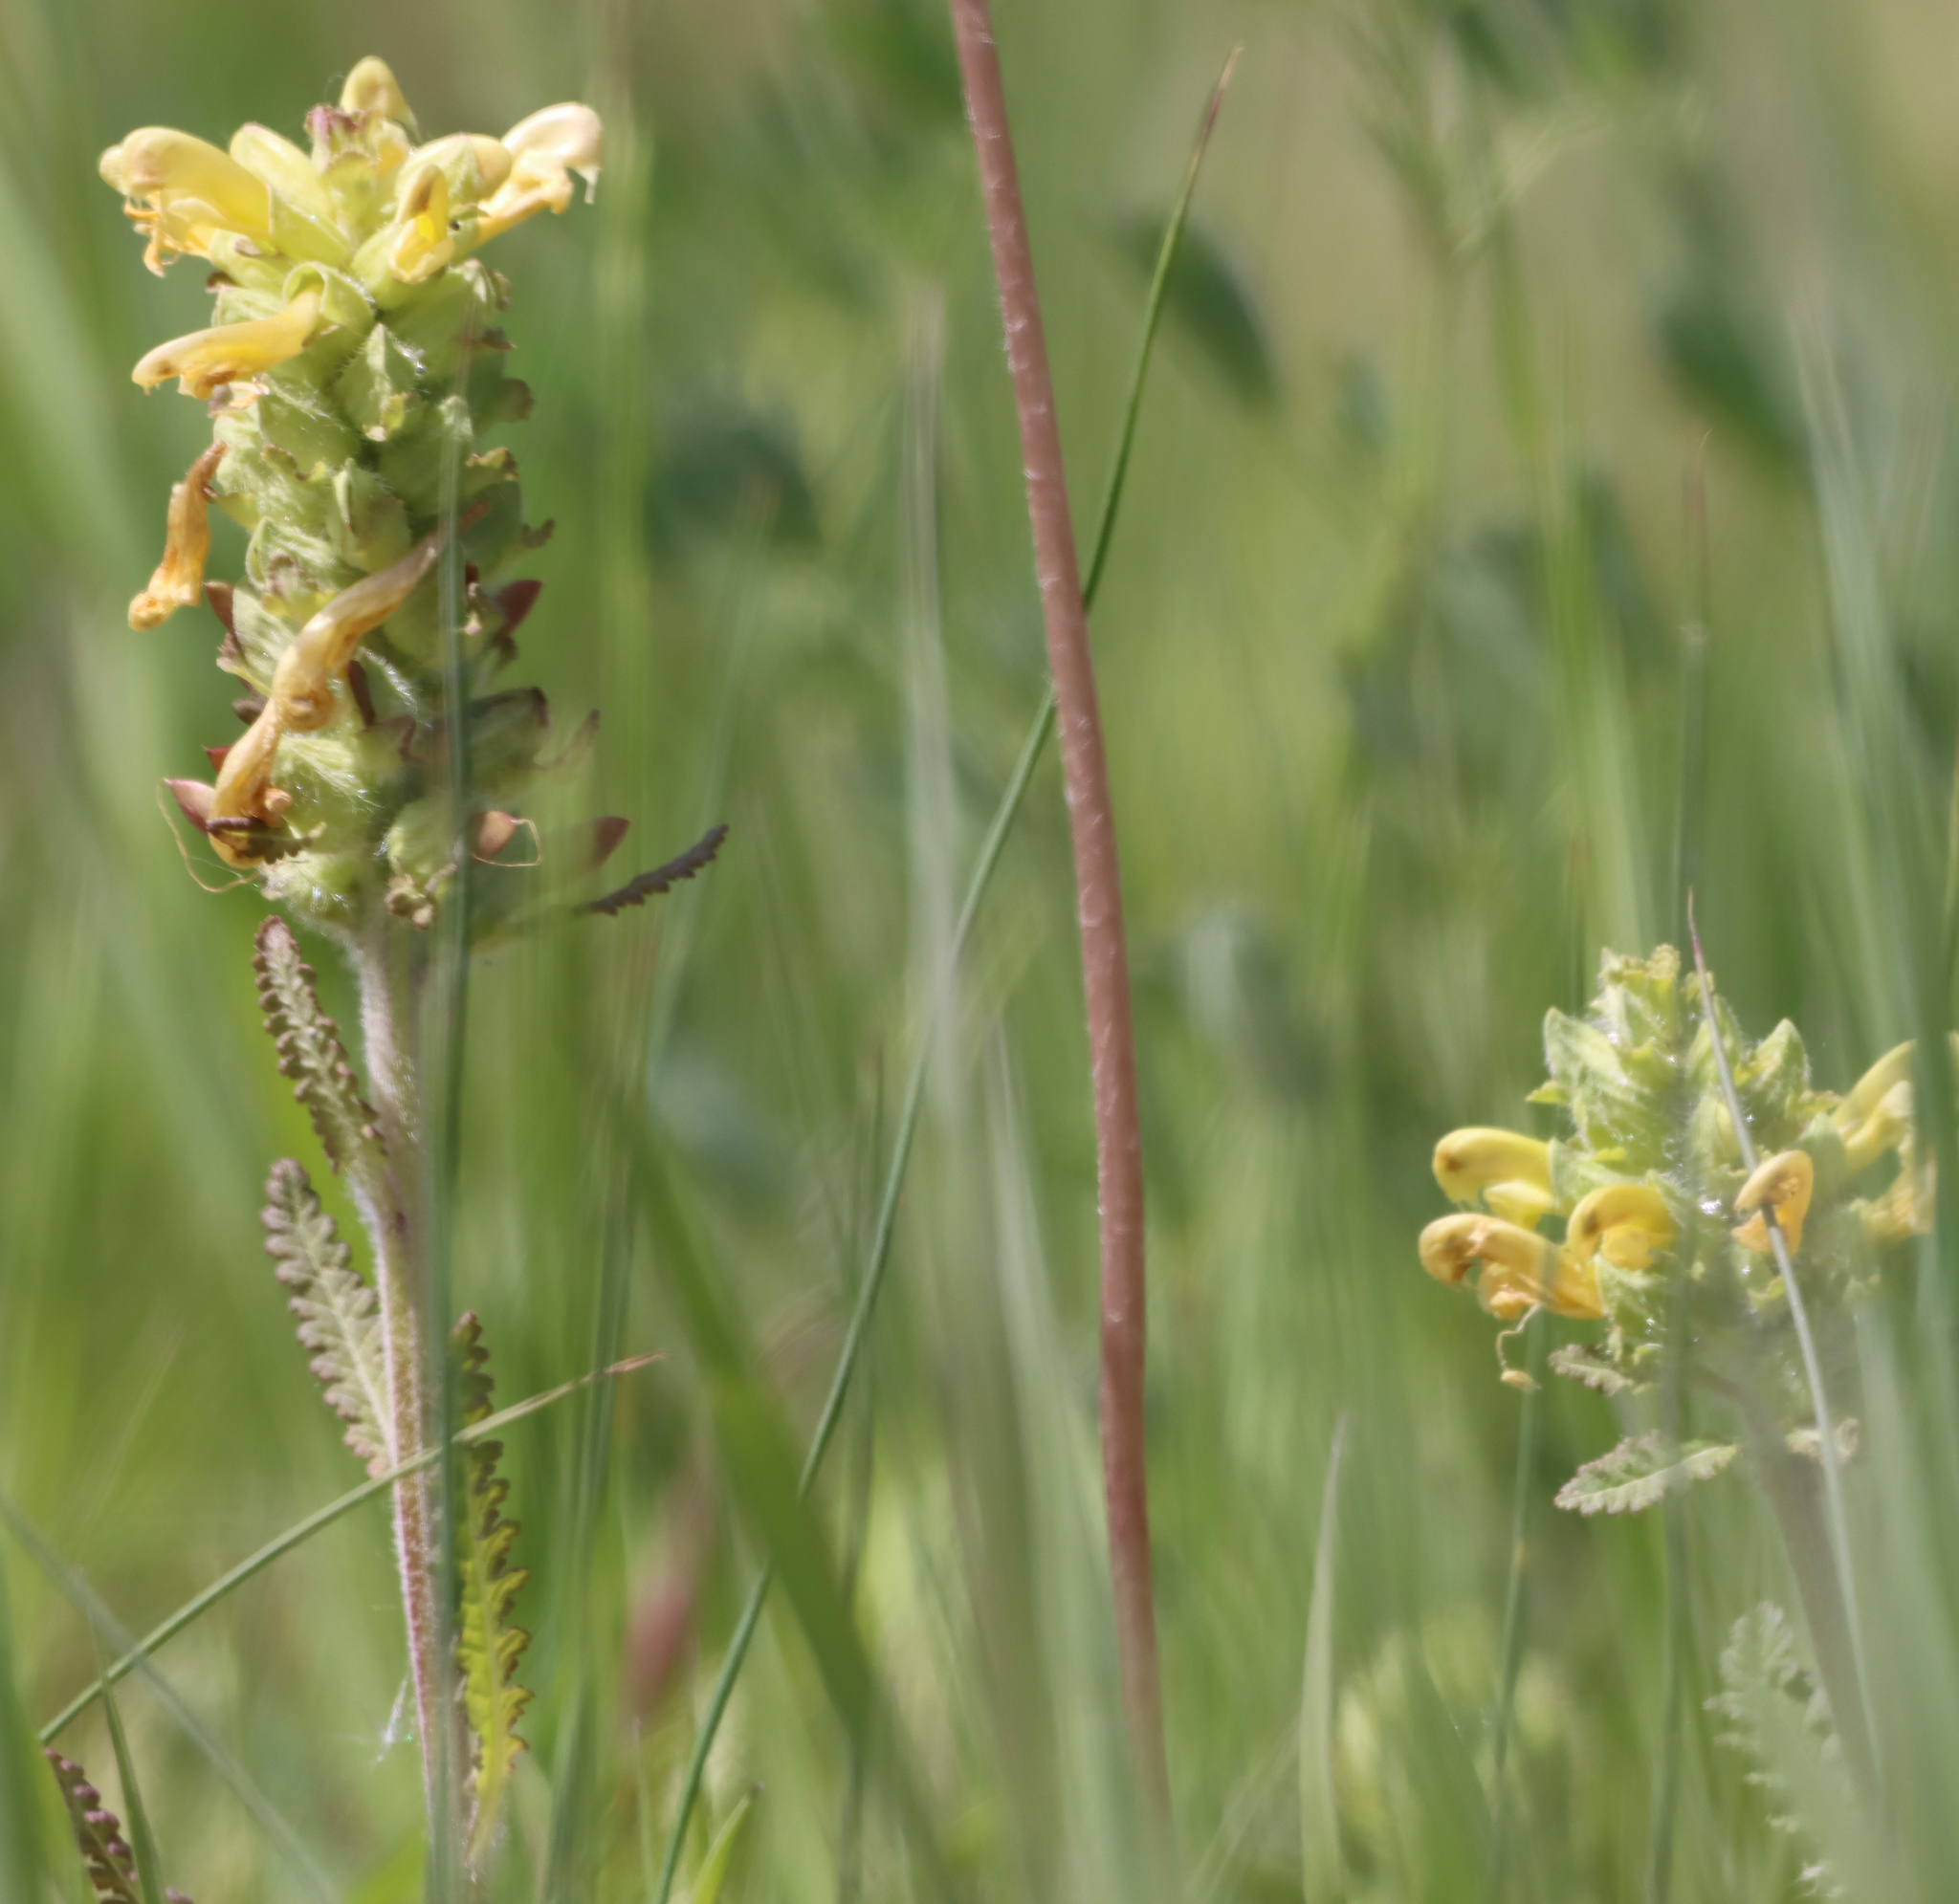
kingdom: Plantae
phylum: Tracheophyta
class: Magnoliopsida
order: Lamiales
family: Orobanchaceae
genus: Pedicularis
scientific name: Pedicularis canadensis
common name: Early lousewort
